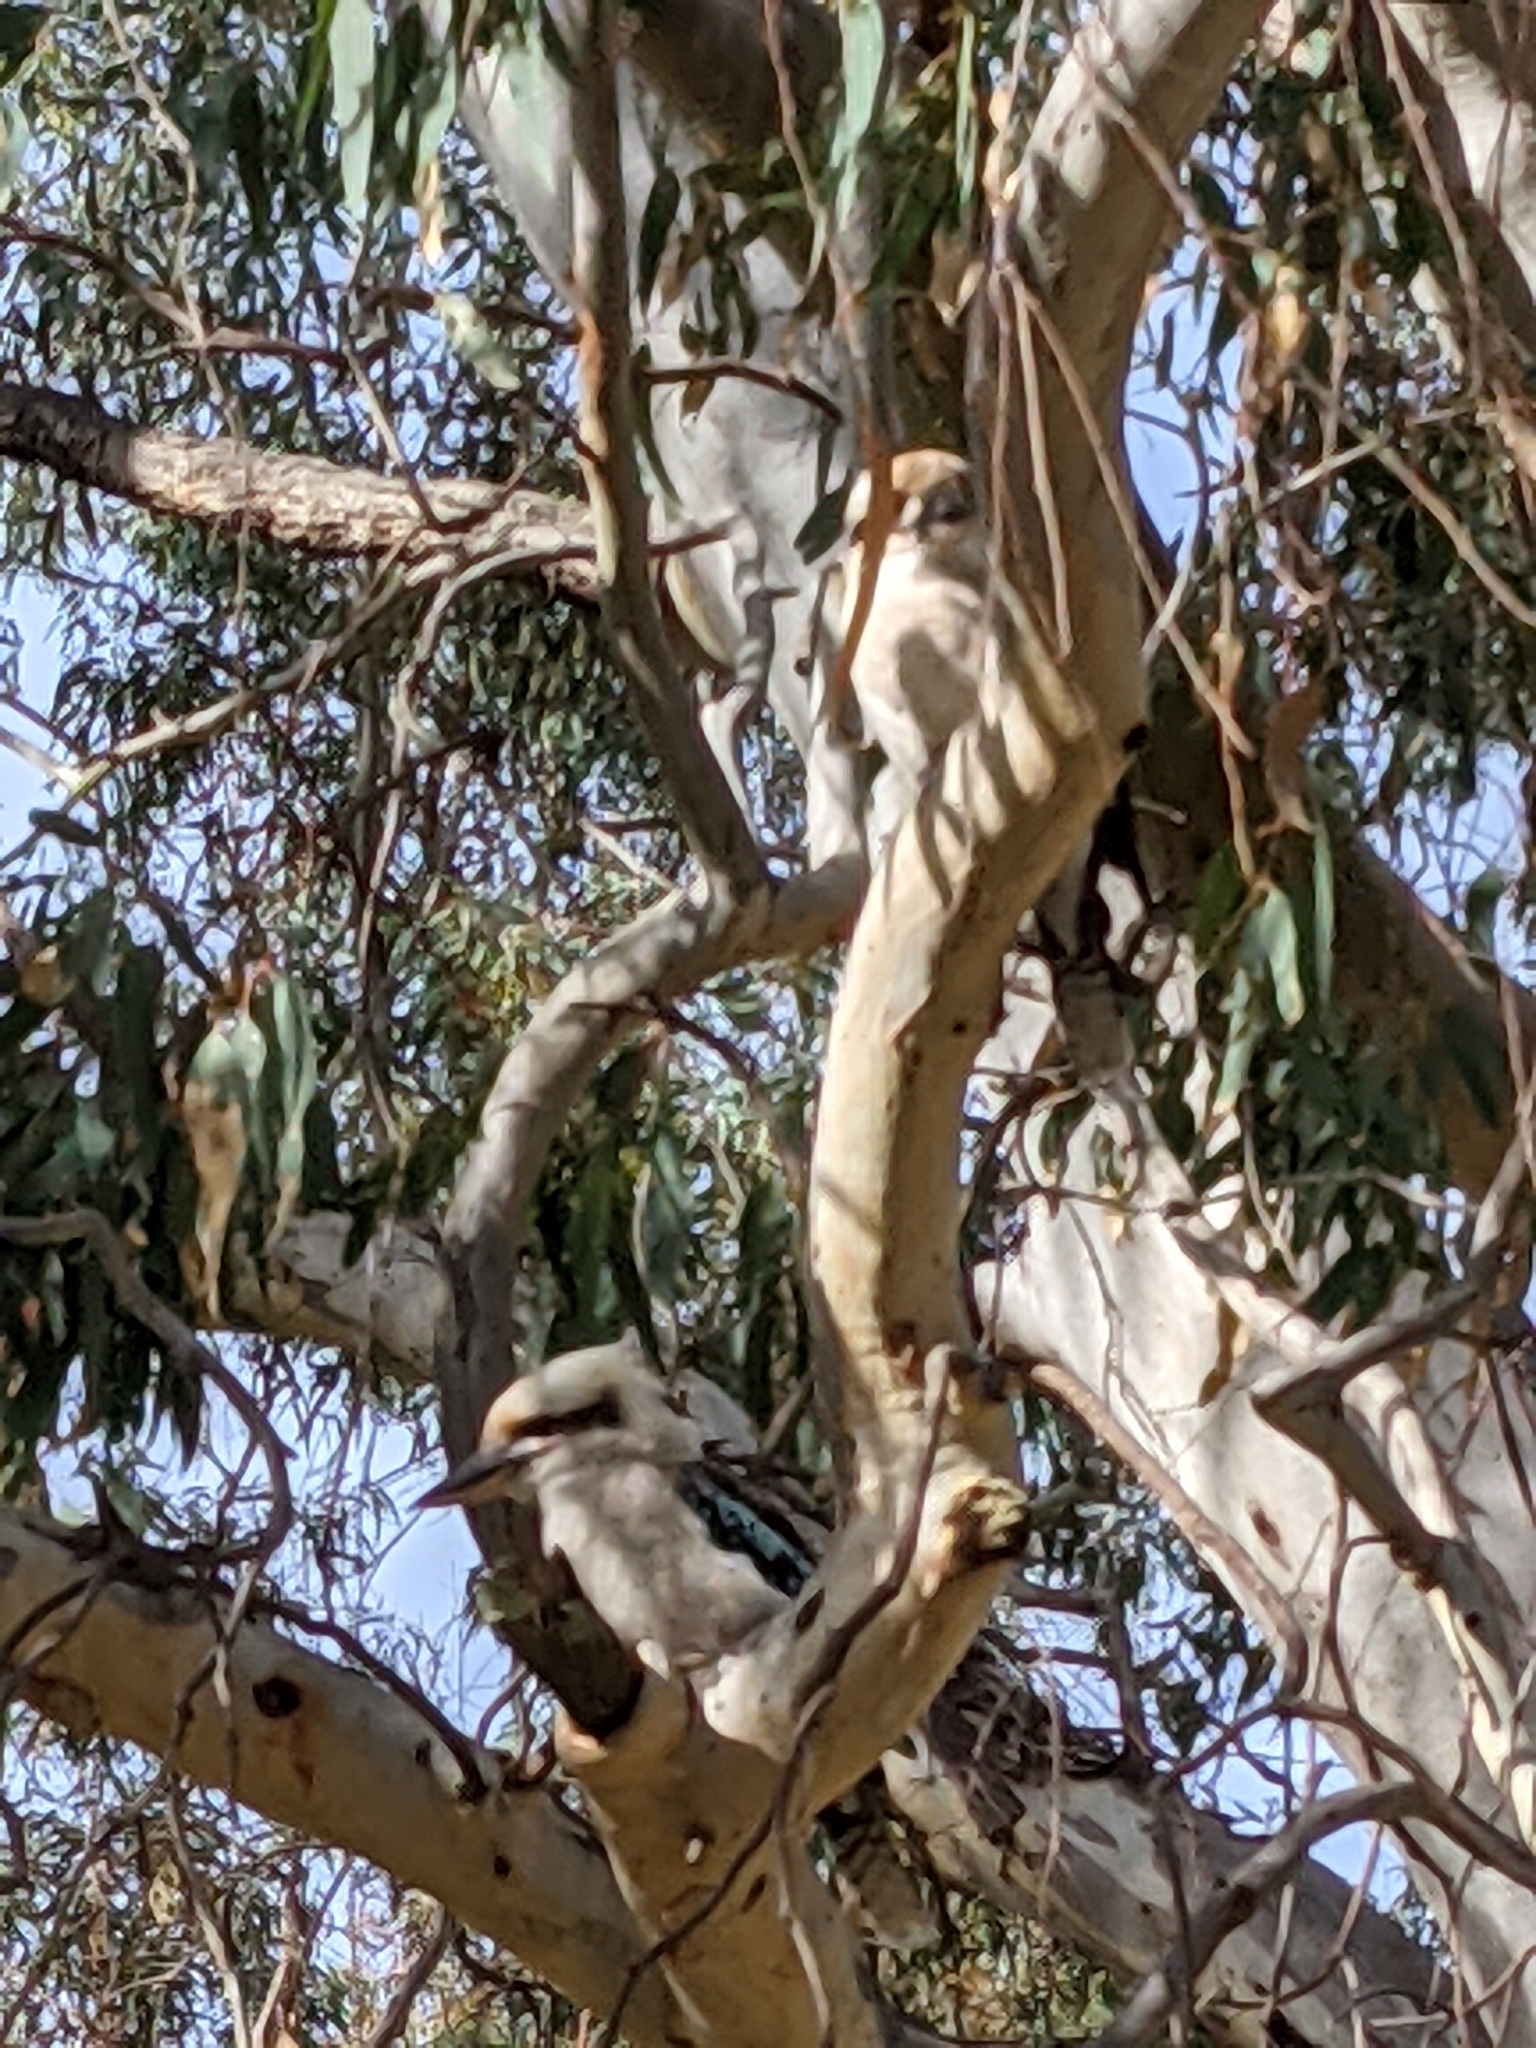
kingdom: Animalia
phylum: Chordata
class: Aves
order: Coraciiformes
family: Alcedinidae
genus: Dacelo
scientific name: Dacelo novaeguineae
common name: Laughing kookaburra
